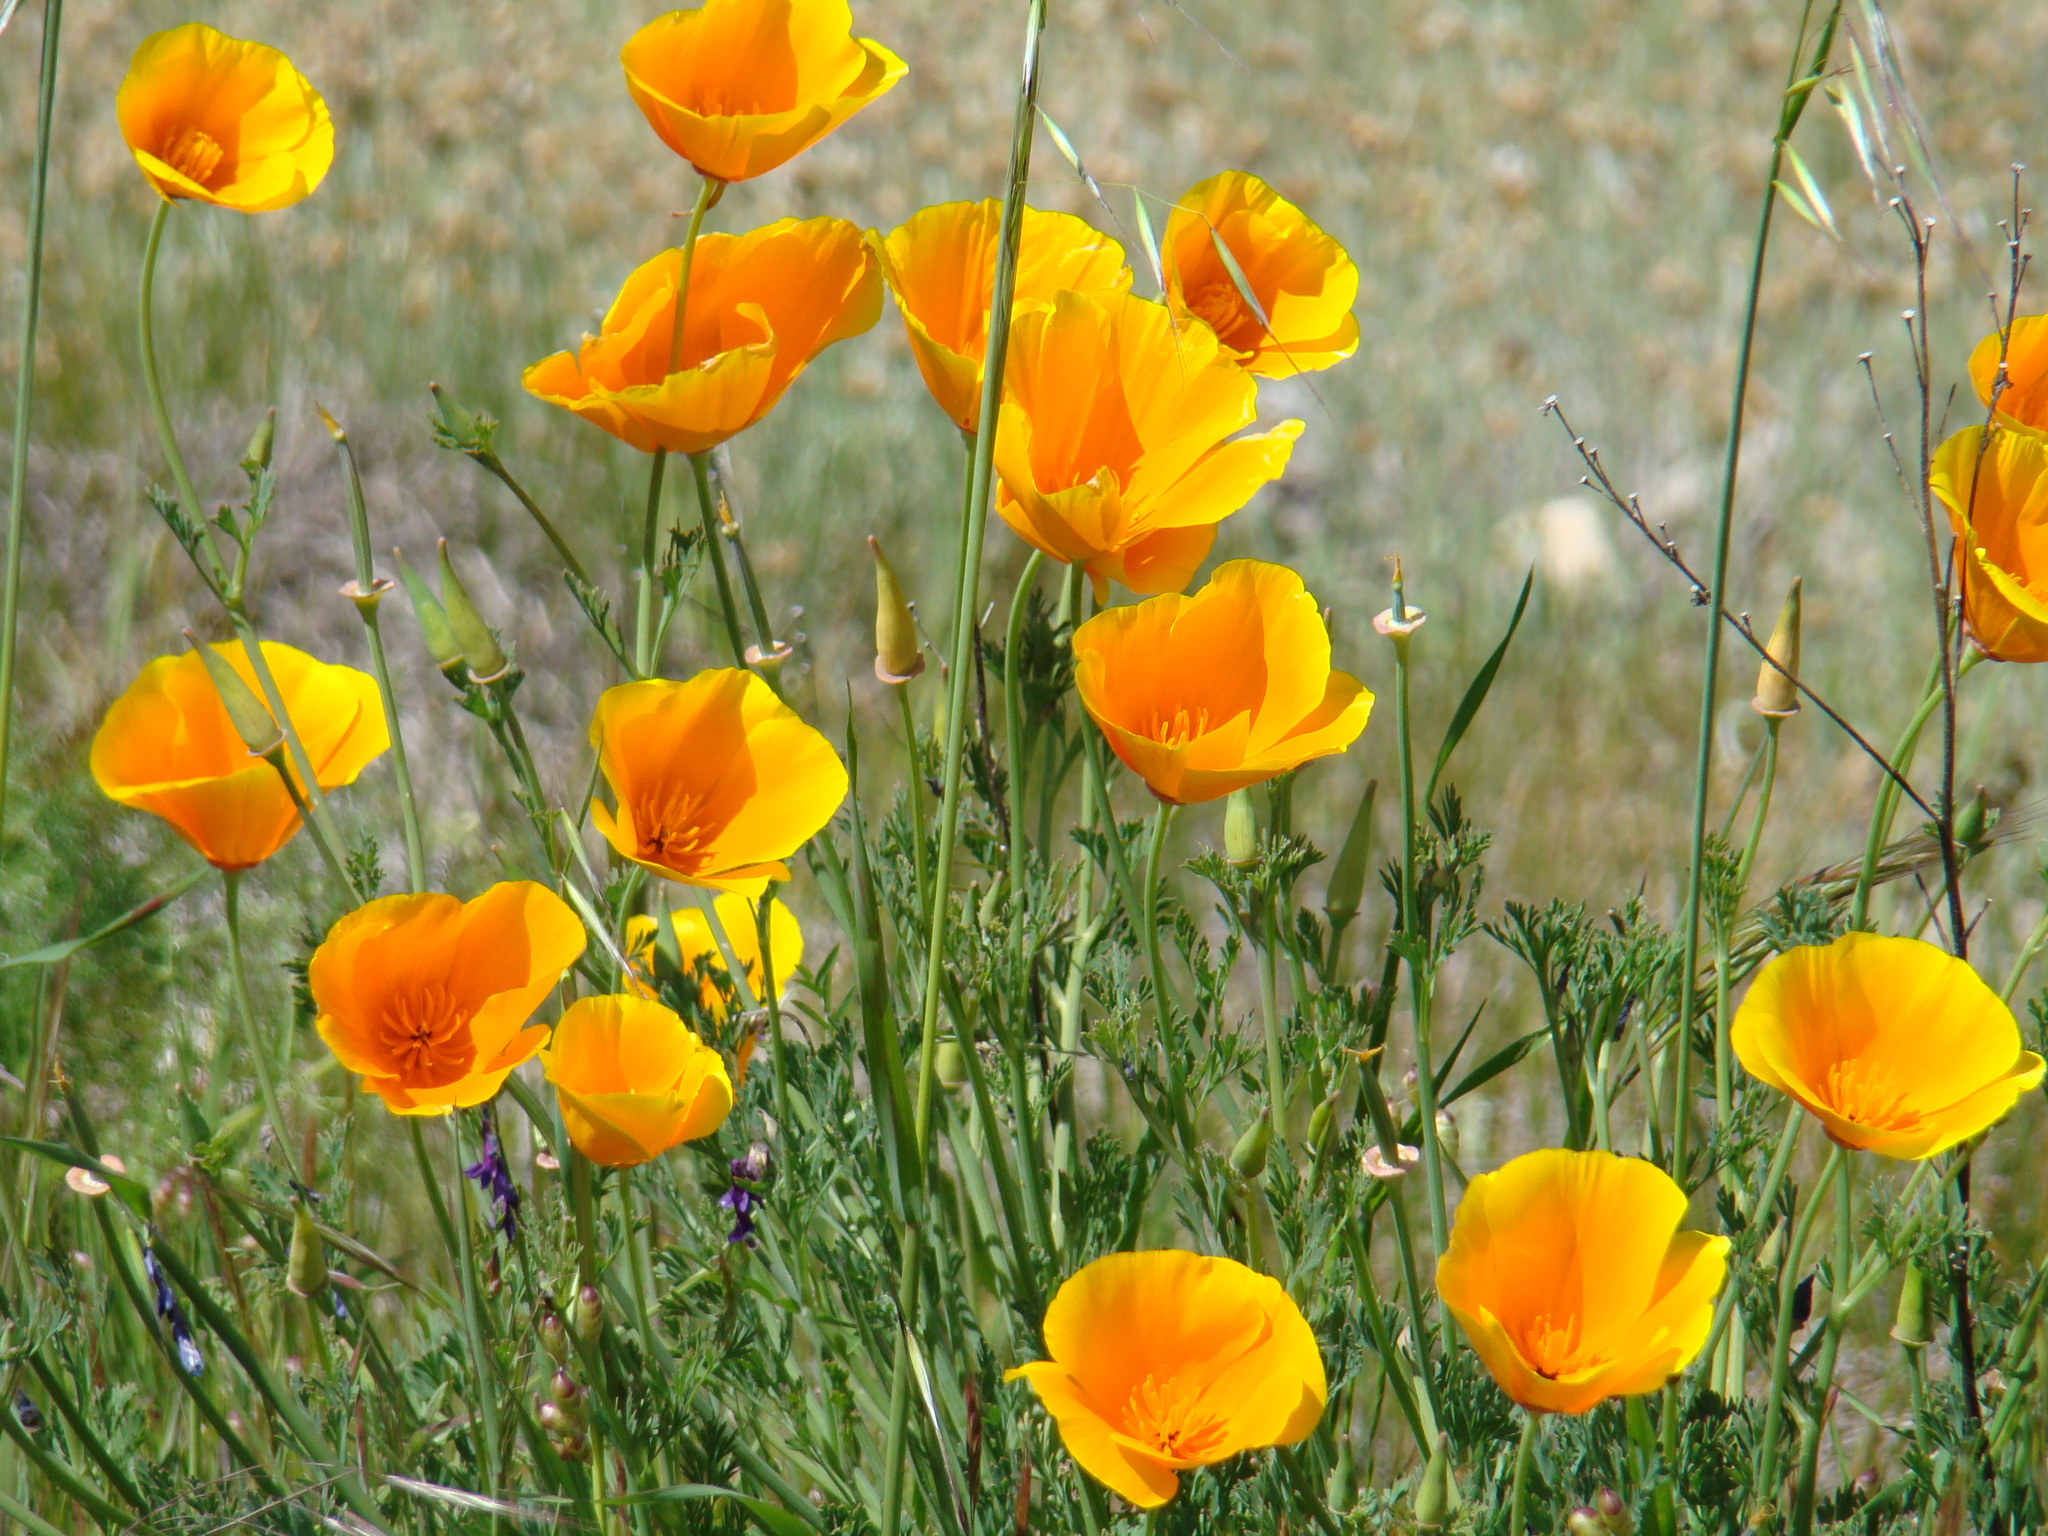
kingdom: Plantae
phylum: Tracheophyta
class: Magnoliopsida
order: Ranunculales
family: Papaveraceae
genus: Eschscholzia
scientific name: Eschscholzia californica
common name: California poppy
